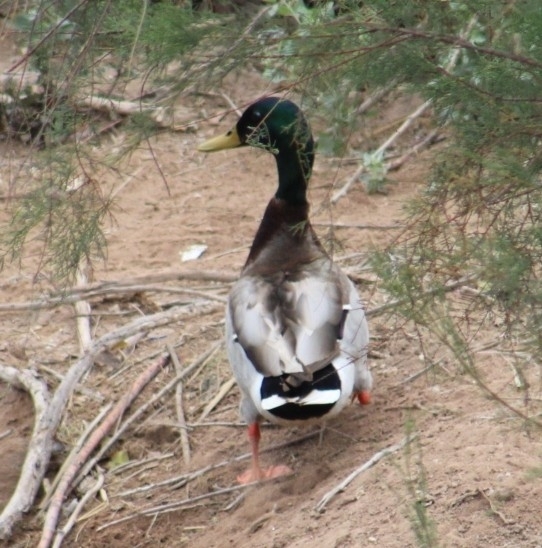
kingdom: Animalia
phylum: Chordata
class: Aves
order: Anseriformes
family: Anatidae
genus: Anas
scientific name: Anas platyrhynchos
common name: Mallard
